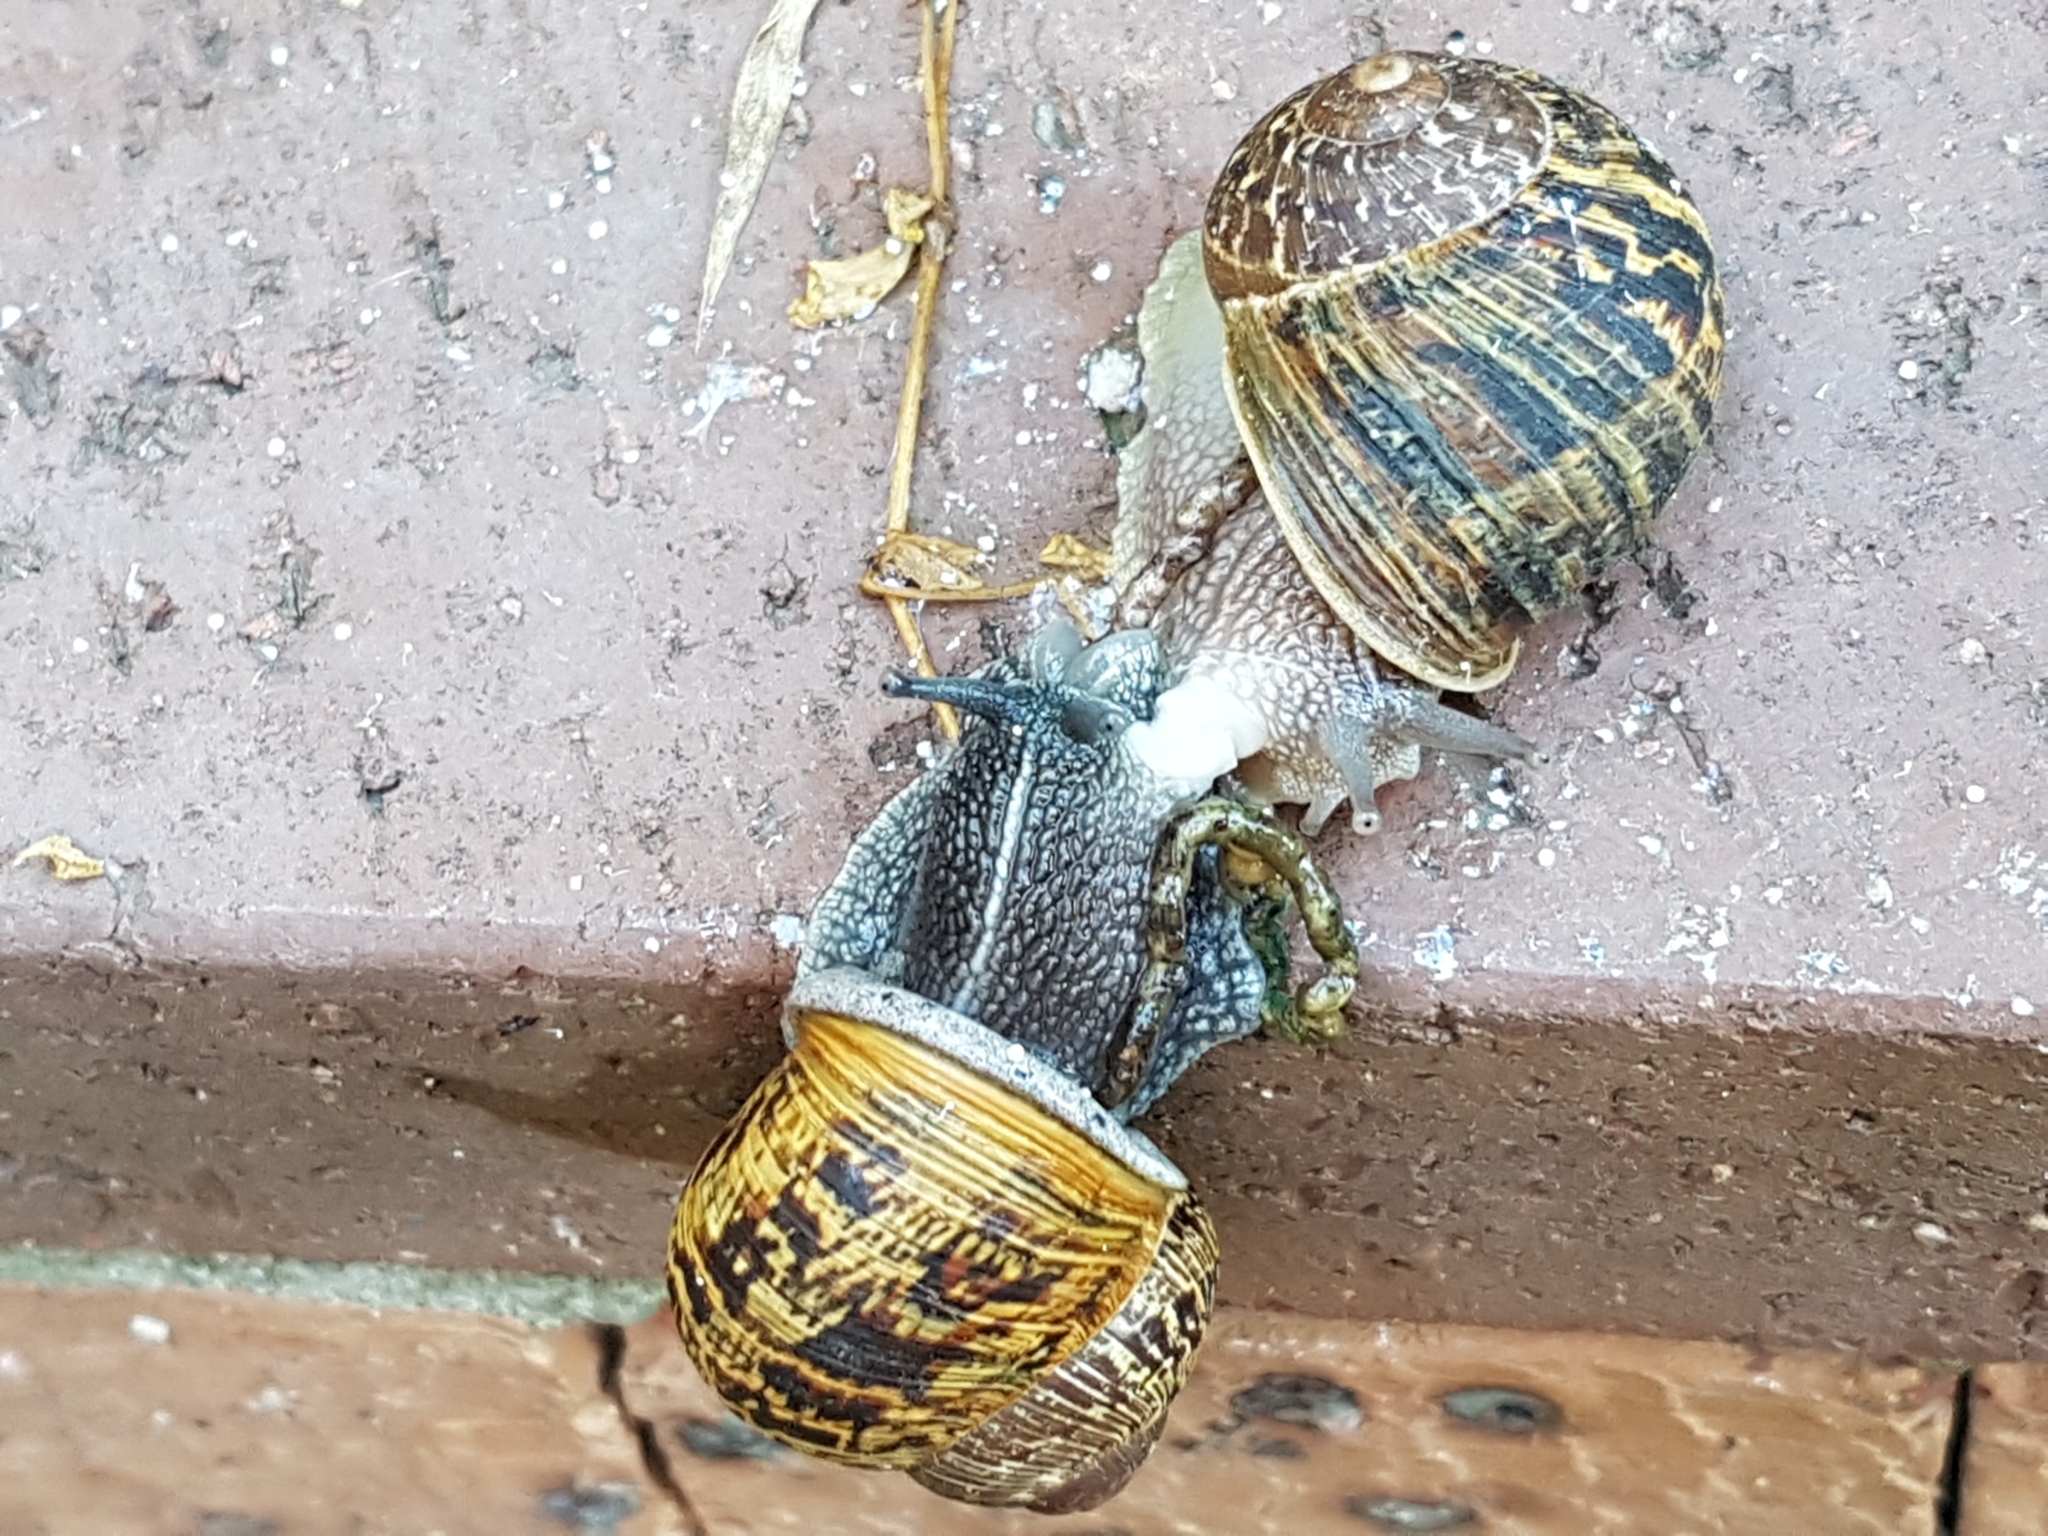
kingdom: Animalia
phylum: Mollusca
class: Gastropoda
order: Stylommatophora
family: Helicidae
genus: Cornu
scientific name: Cornu aspersum
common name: Brown garden snail
